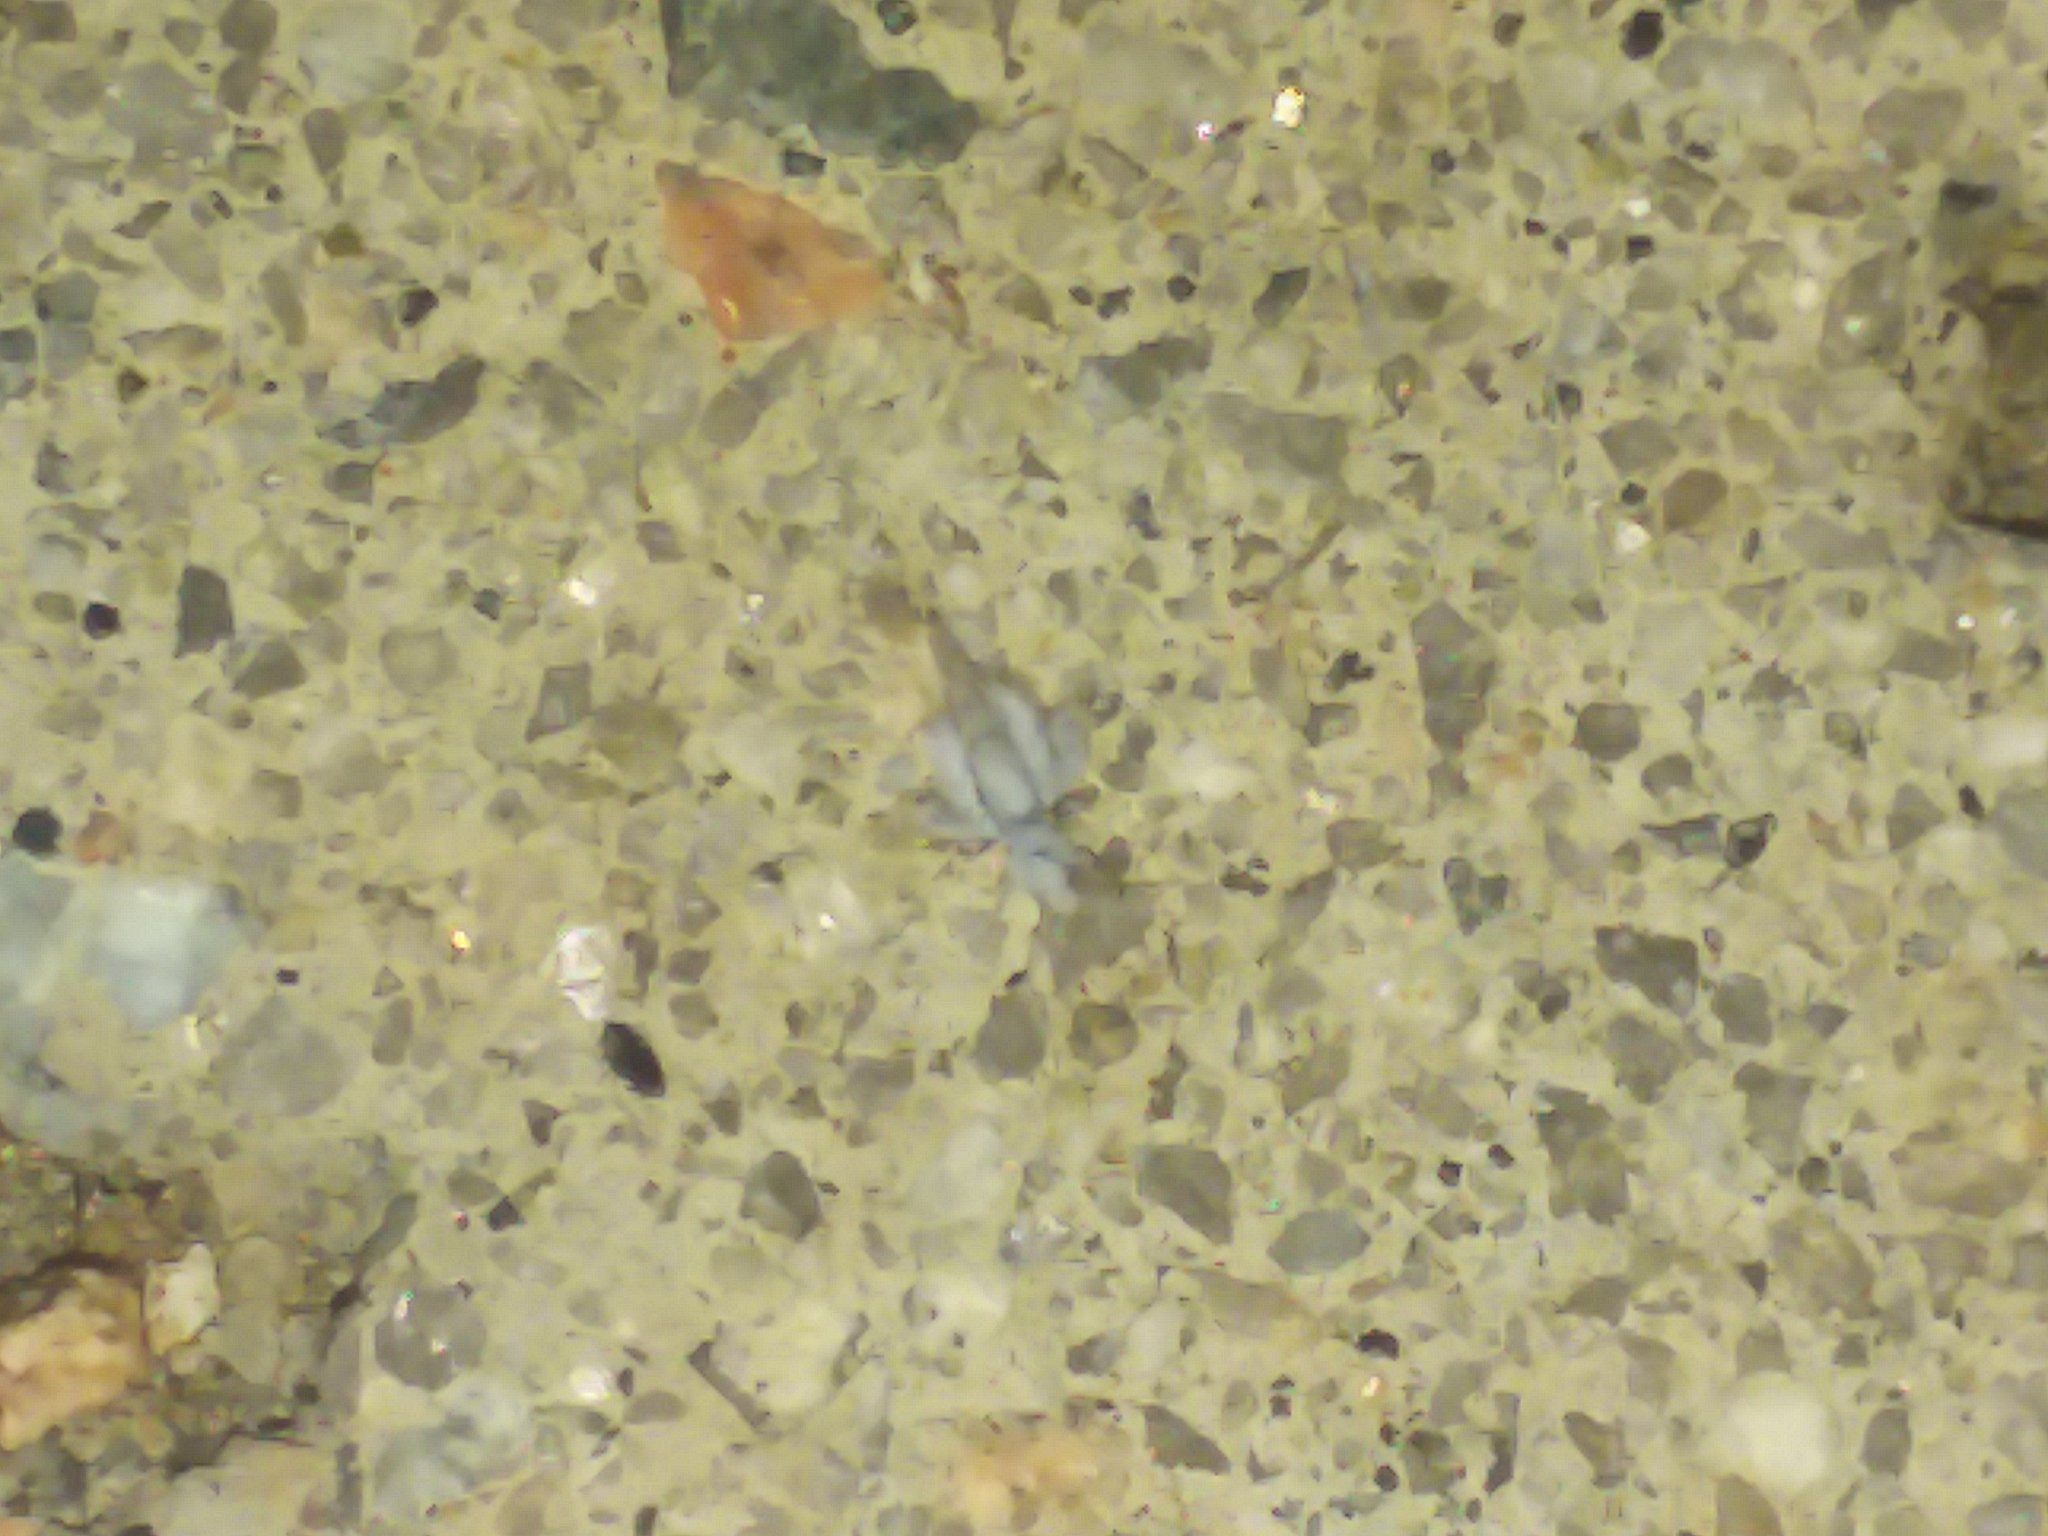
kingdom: Animalia
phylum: Arthropoda
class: Insecta
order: Hemiptera
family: Aphididae
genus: Shivaphis
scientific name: Shivaphis celti
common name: Asian wooly hackberry aphid
